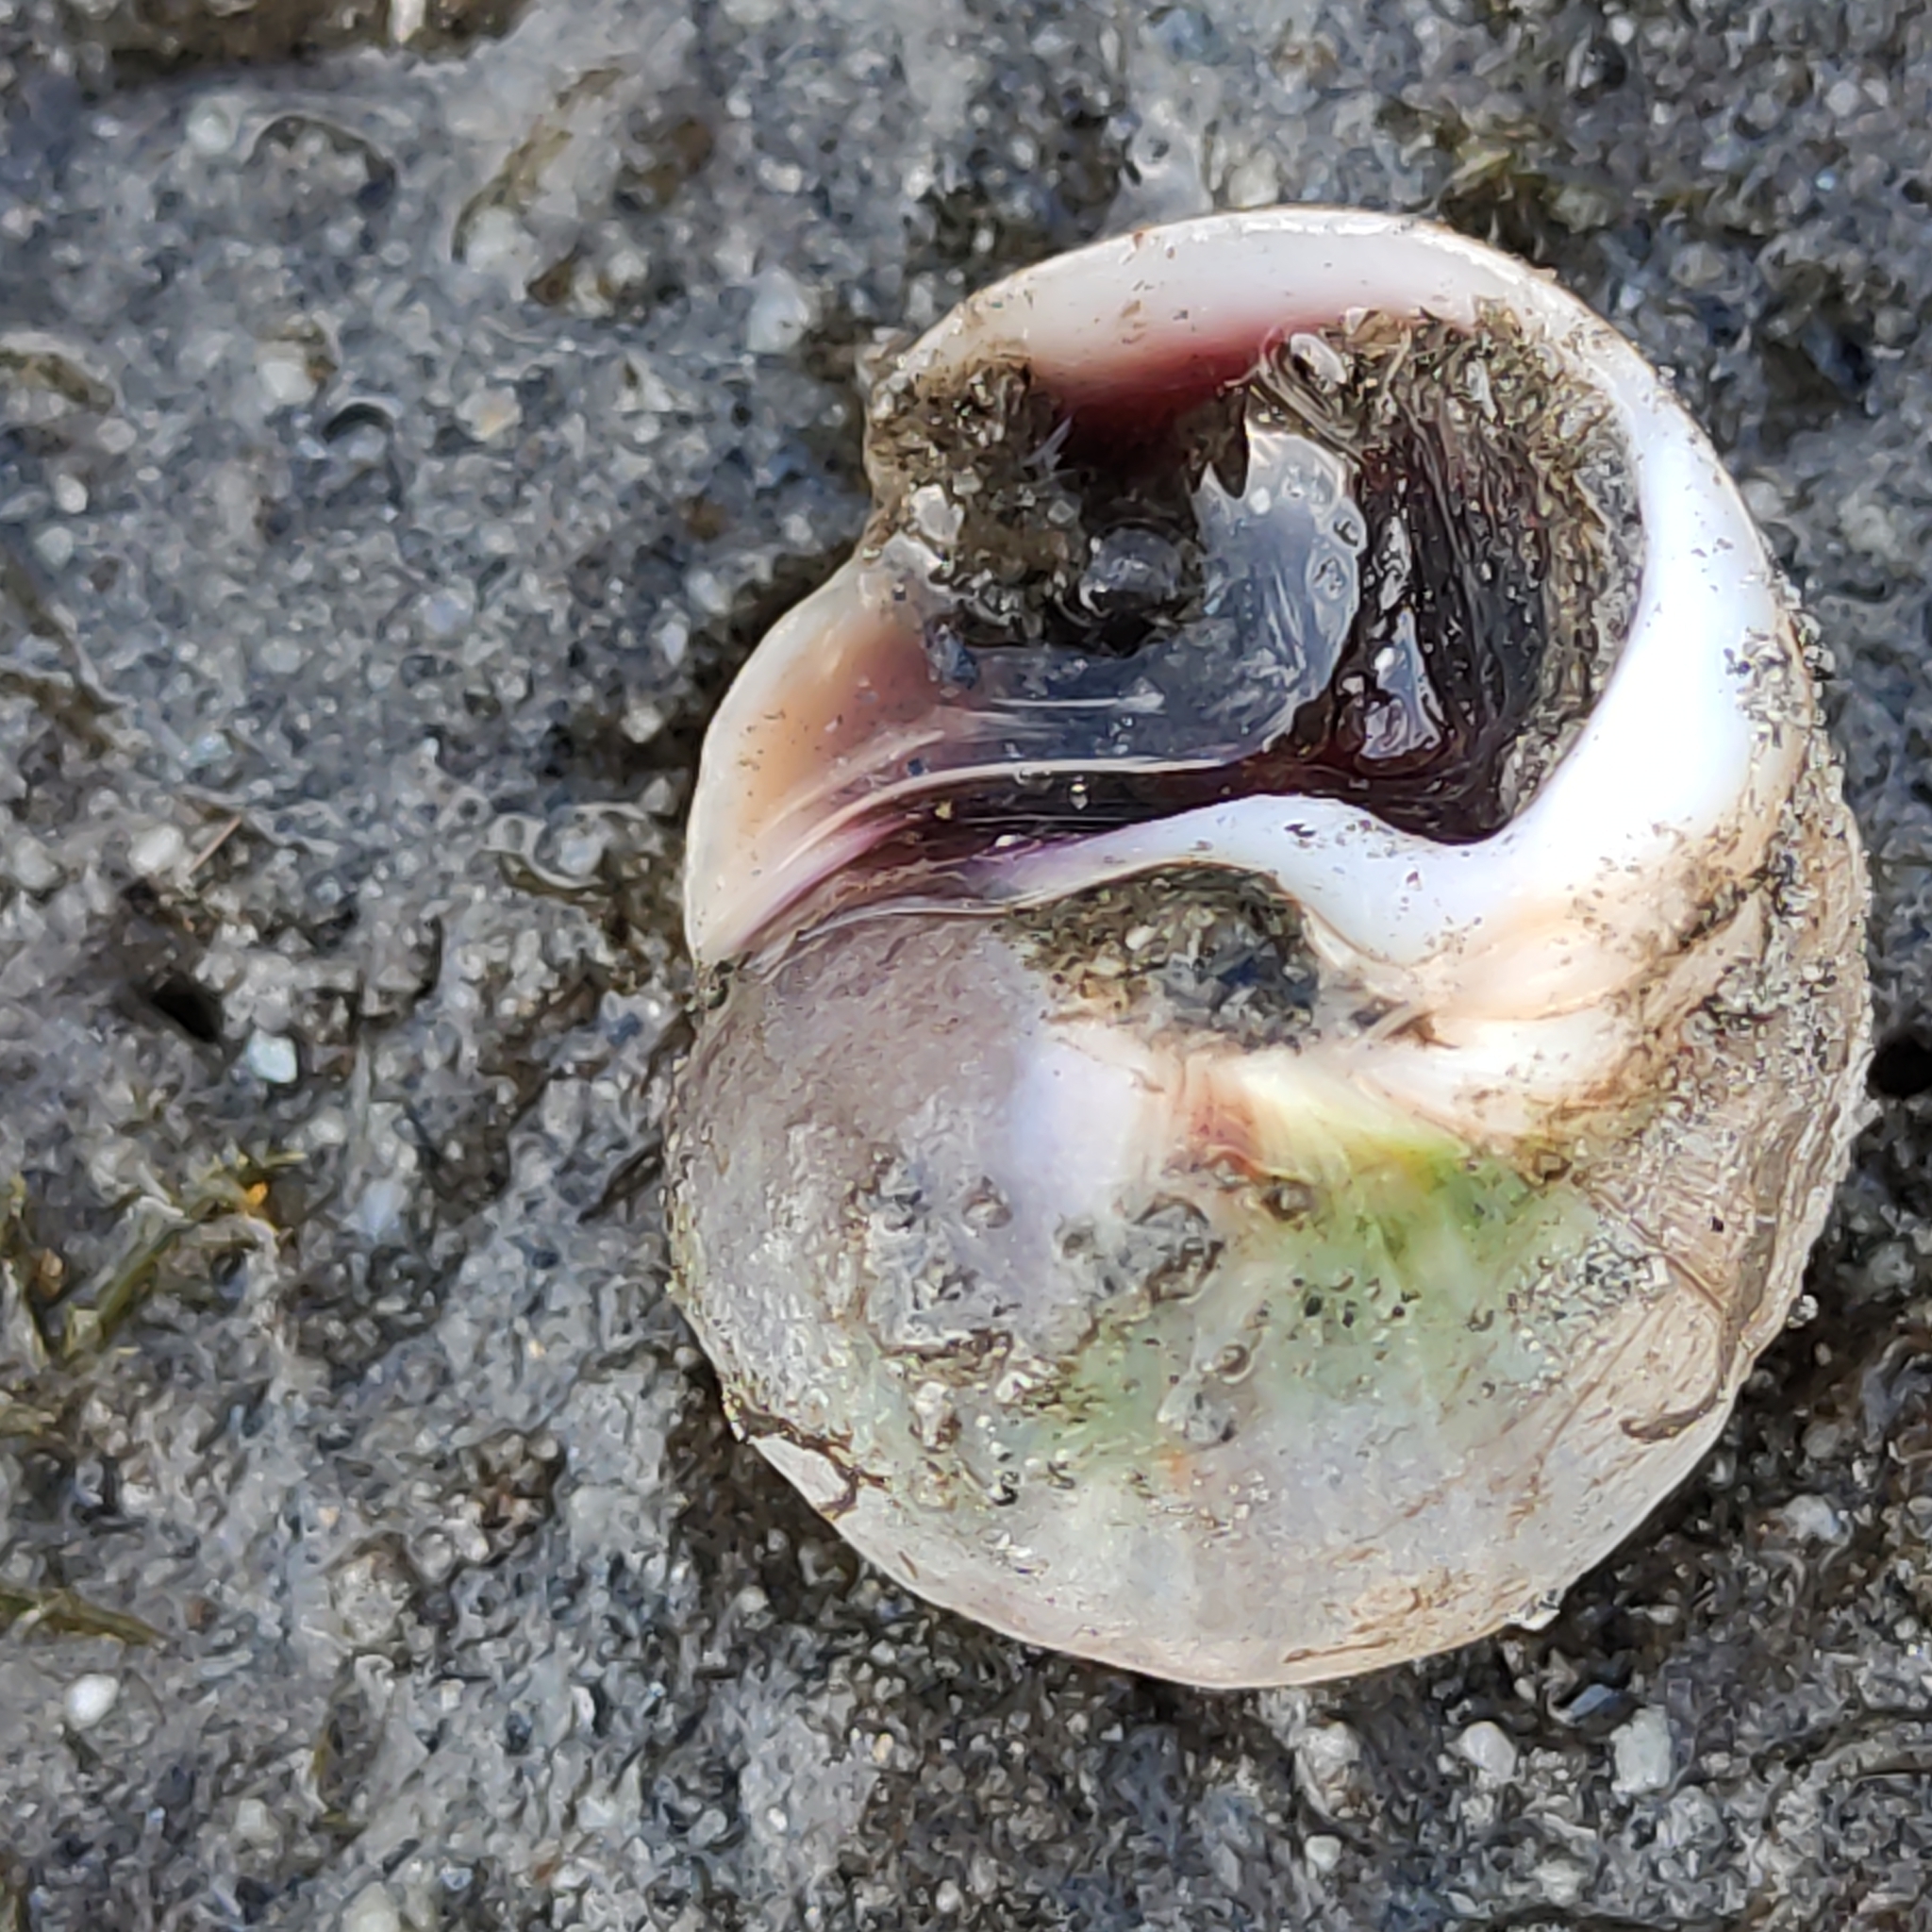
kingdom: Animalia
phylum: Mollusca
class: Gastropoda
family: Amphibolidae
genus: Amphibola
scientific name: Amphibola crenata
